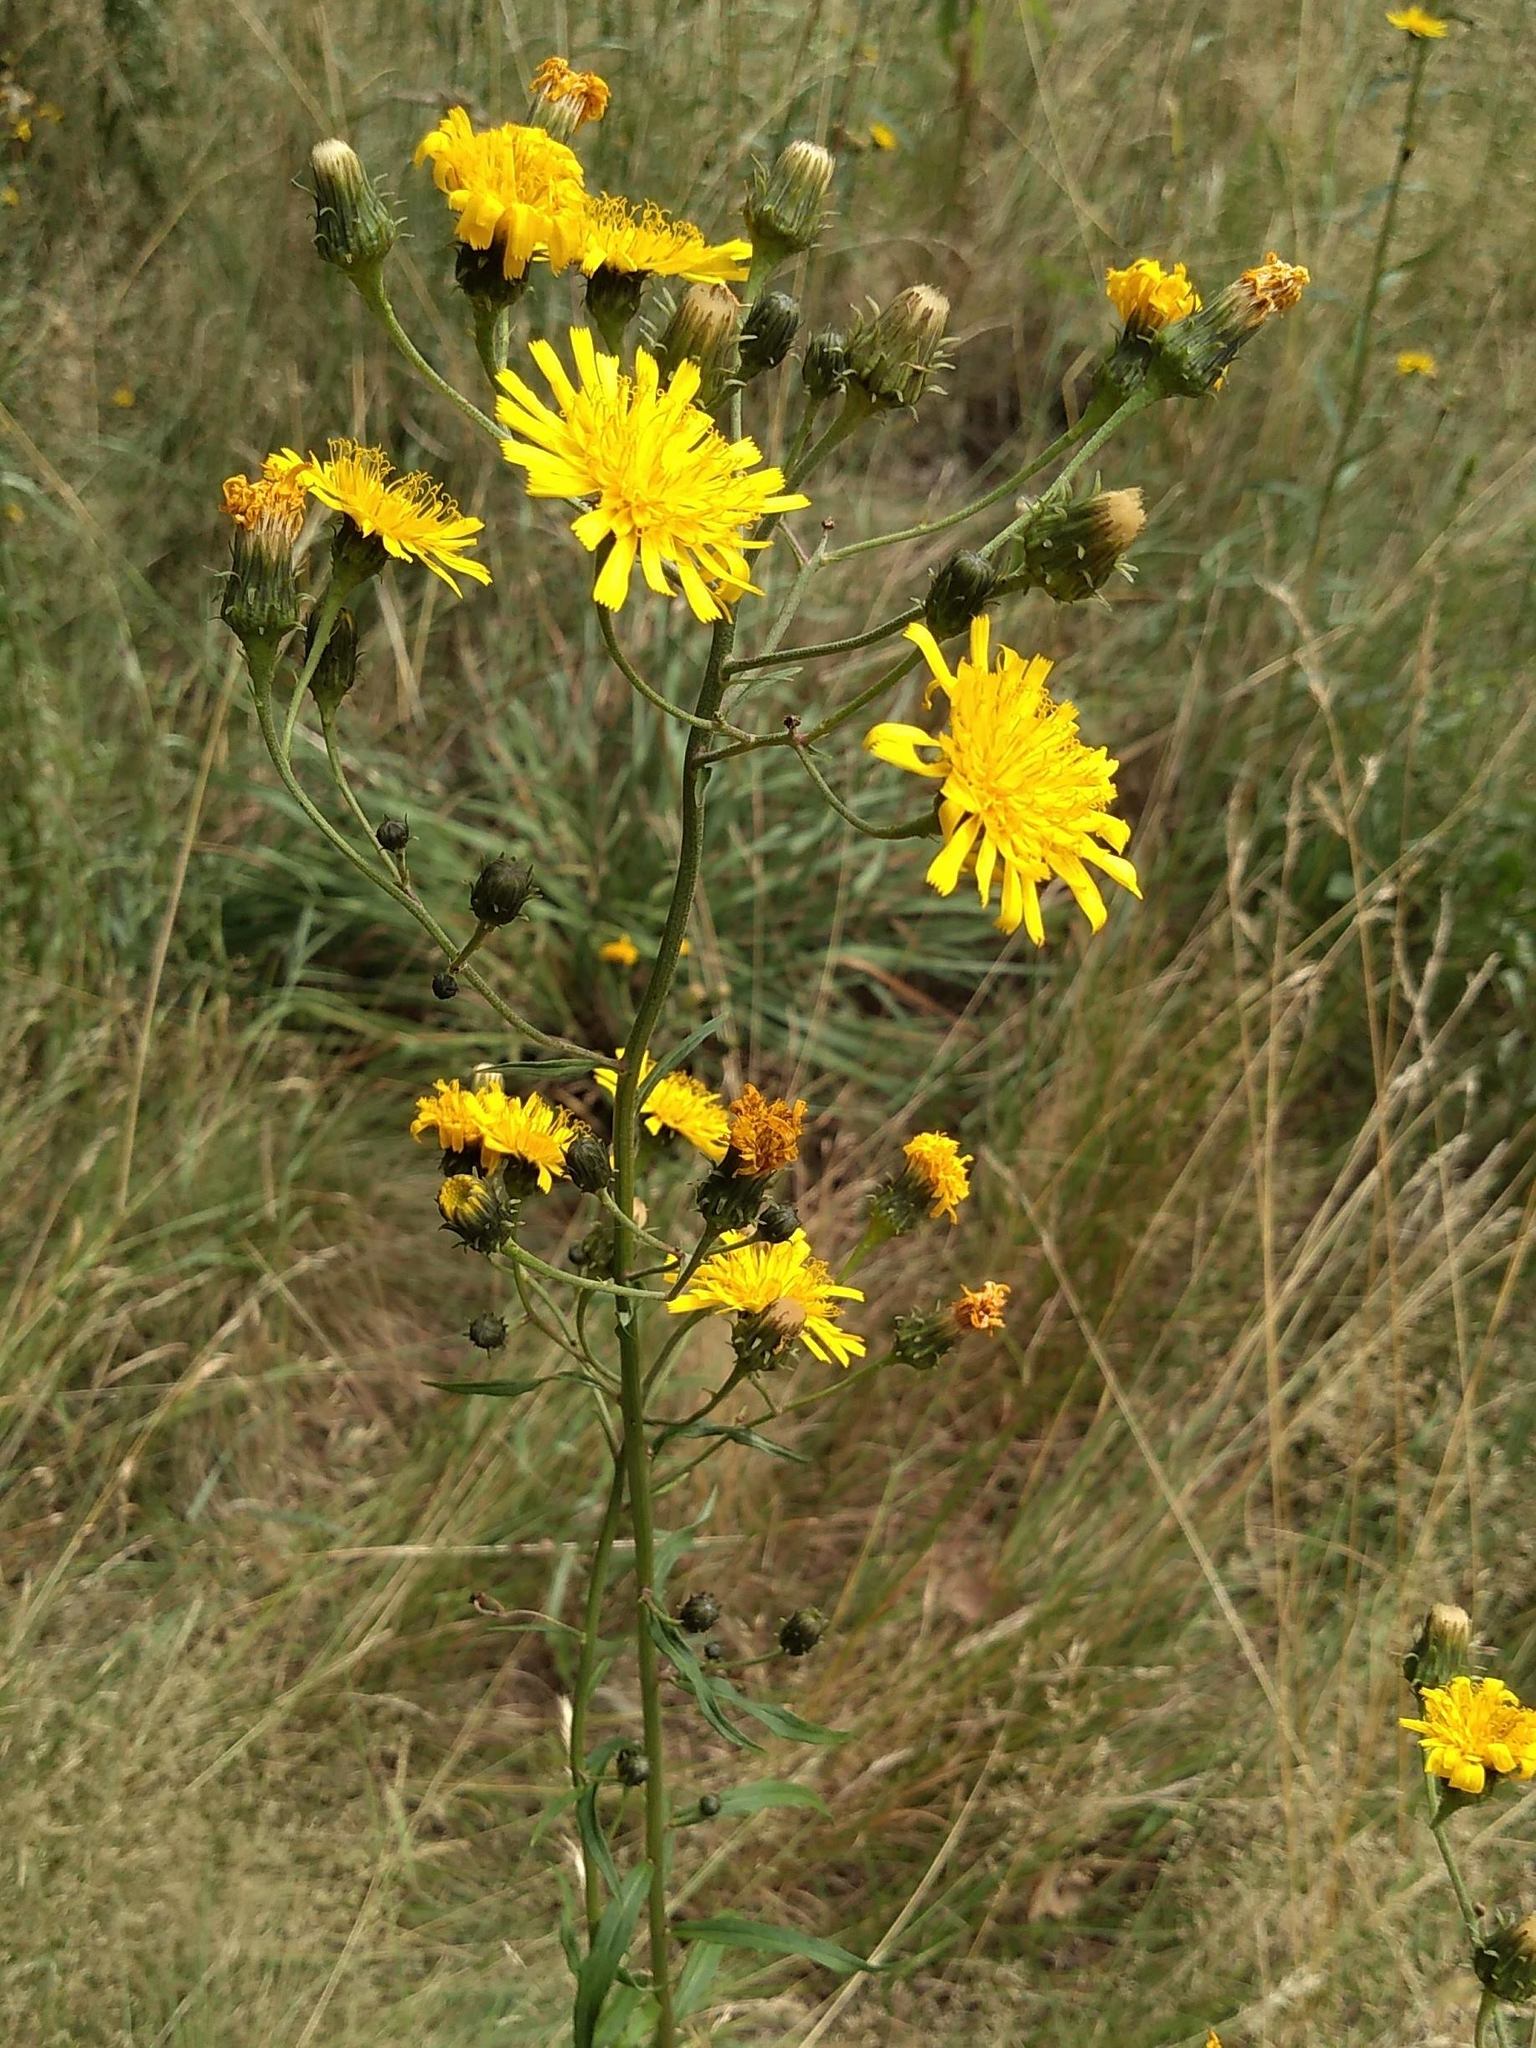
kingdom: Plantae
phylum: Tracheophyta
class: Magnoliopsida
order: Asterales
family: Asteraceae
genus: Hieracium
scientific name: Hieracium umbellatum
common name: Northern hawkweed
